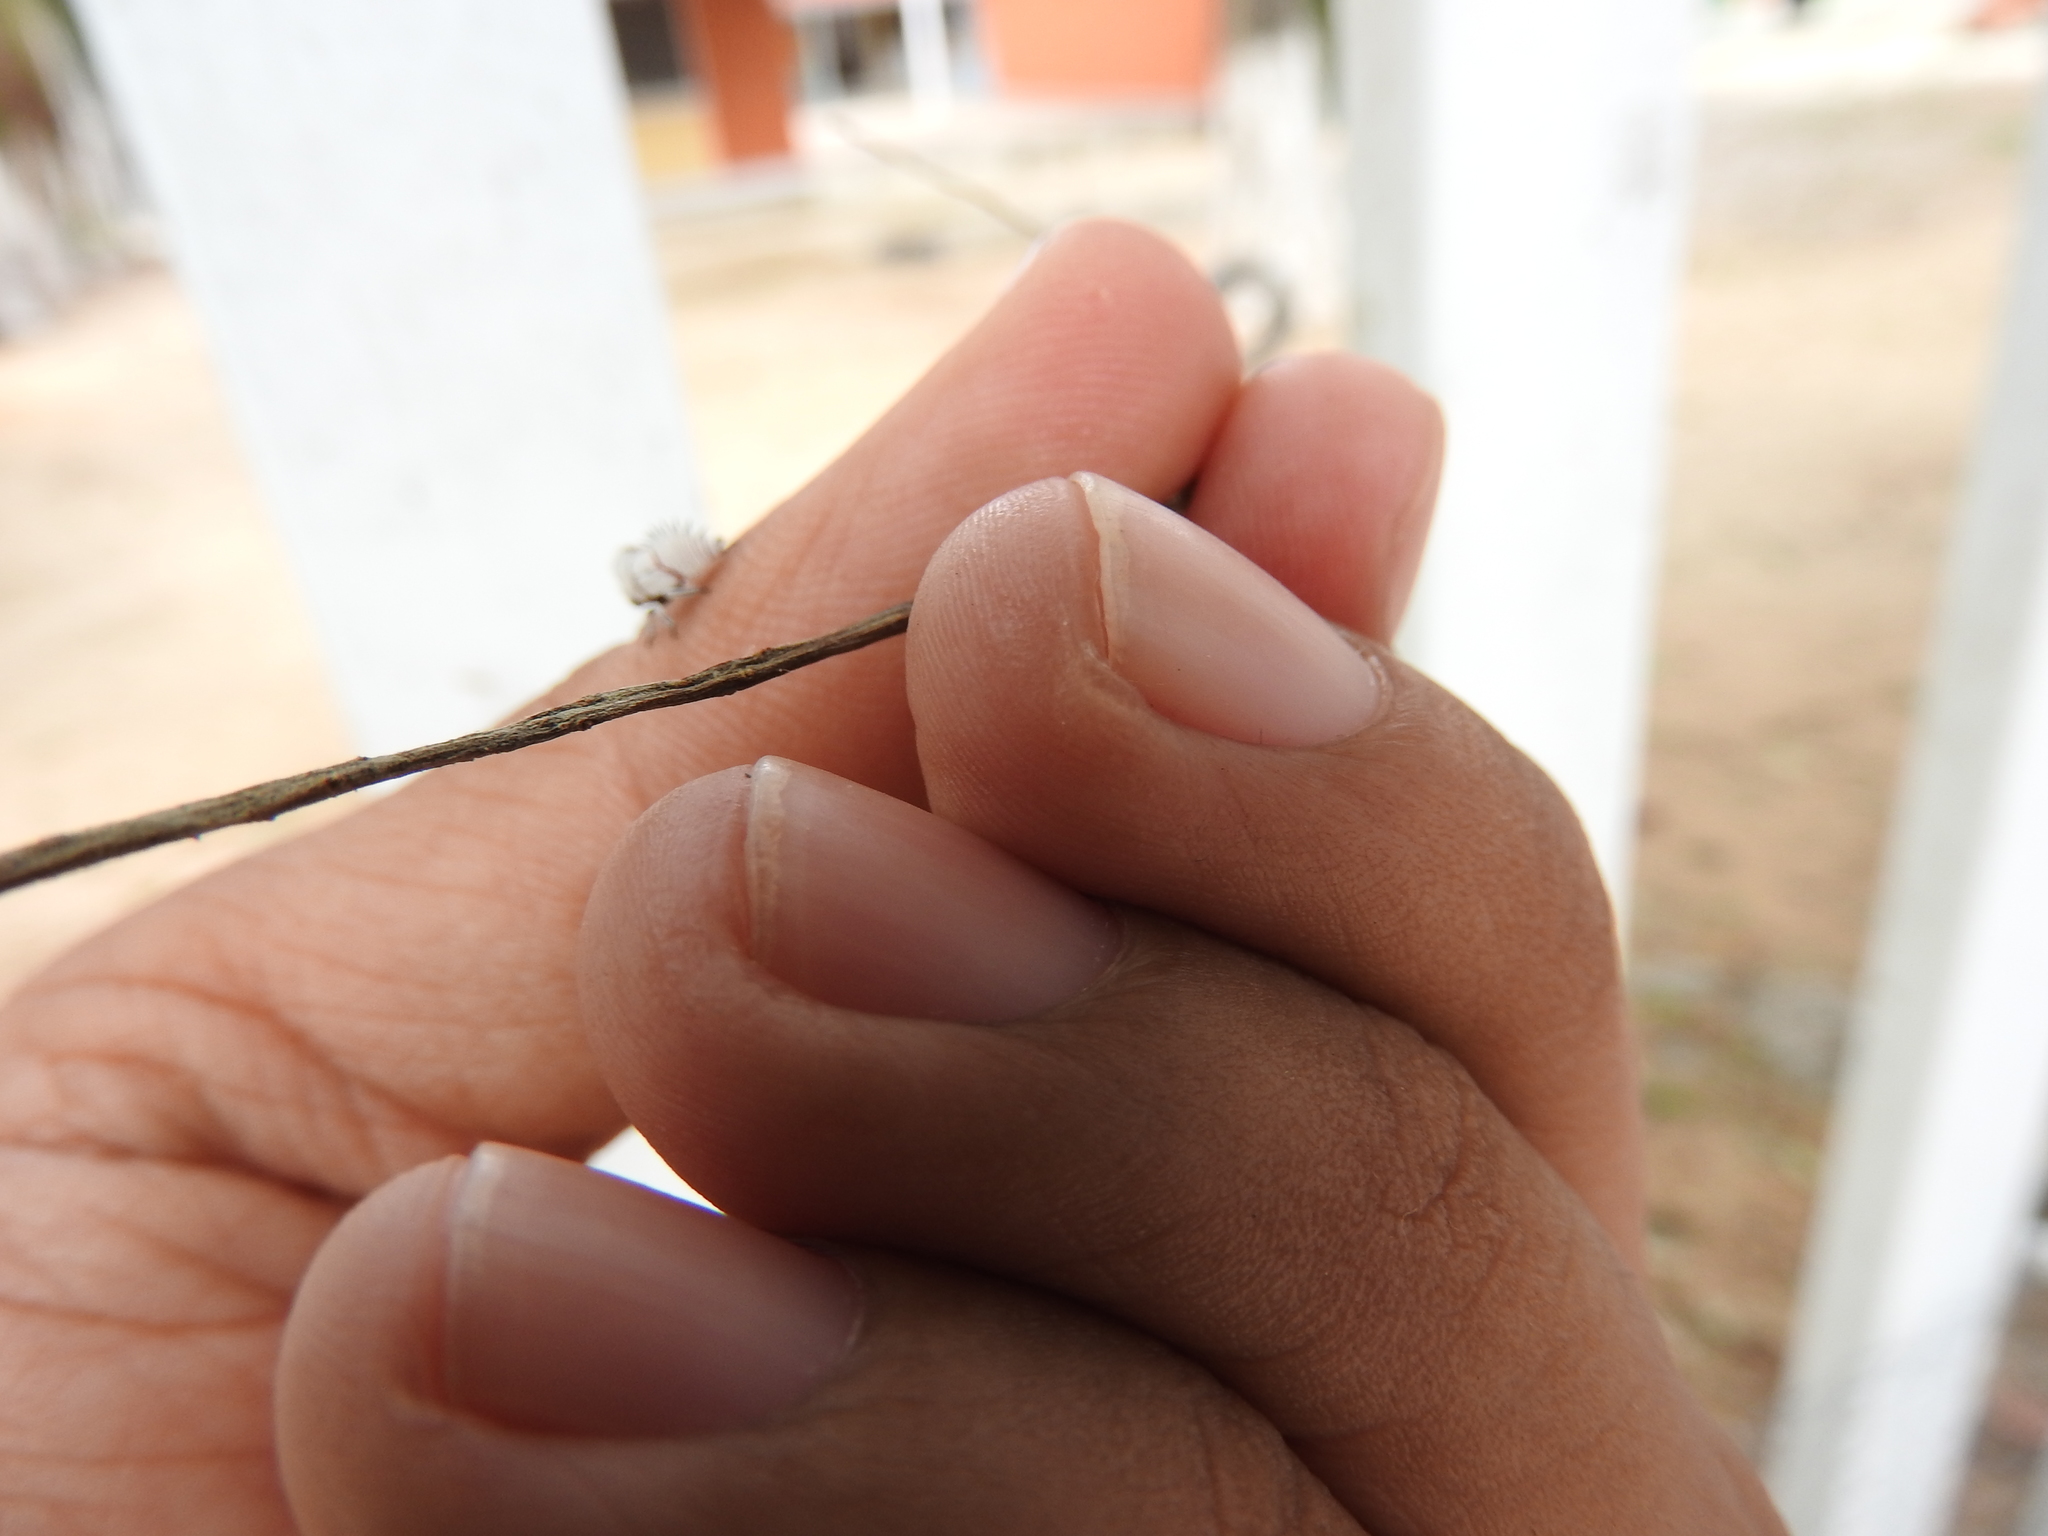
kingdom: Animalia
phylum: Arthropoda
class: Insecta
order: Hemiptera
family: Membracidae
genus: Membracis
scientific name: Membracis mexicana
